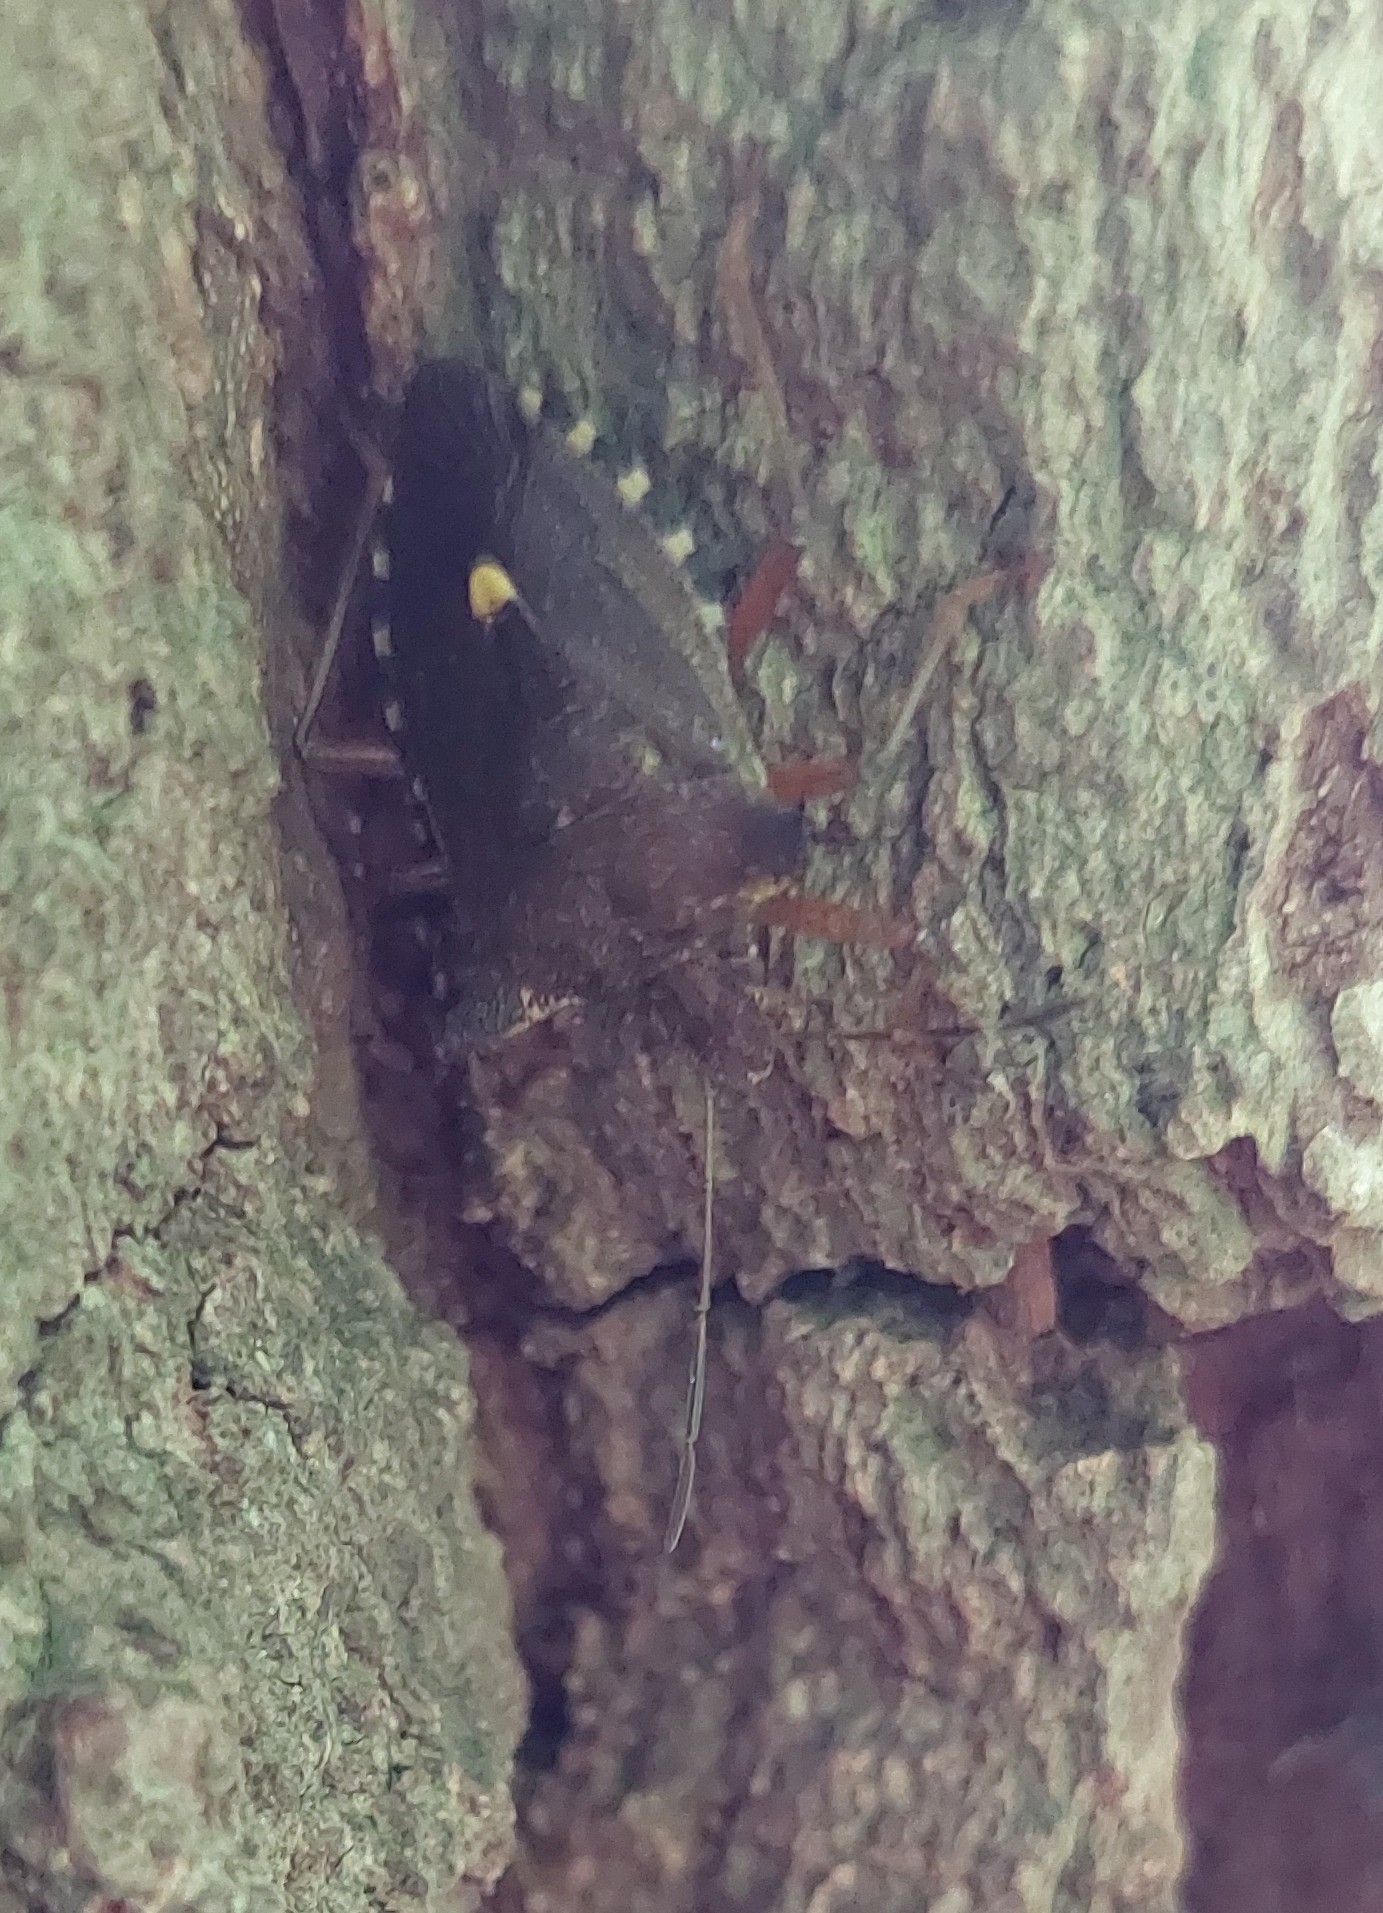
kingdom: Animalia
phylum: Arthropoda
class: Insecta
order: Hemiptera
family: Pentatomidae
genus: Pentatoma
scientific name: Pentatoma rufipes
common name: Forest bug
